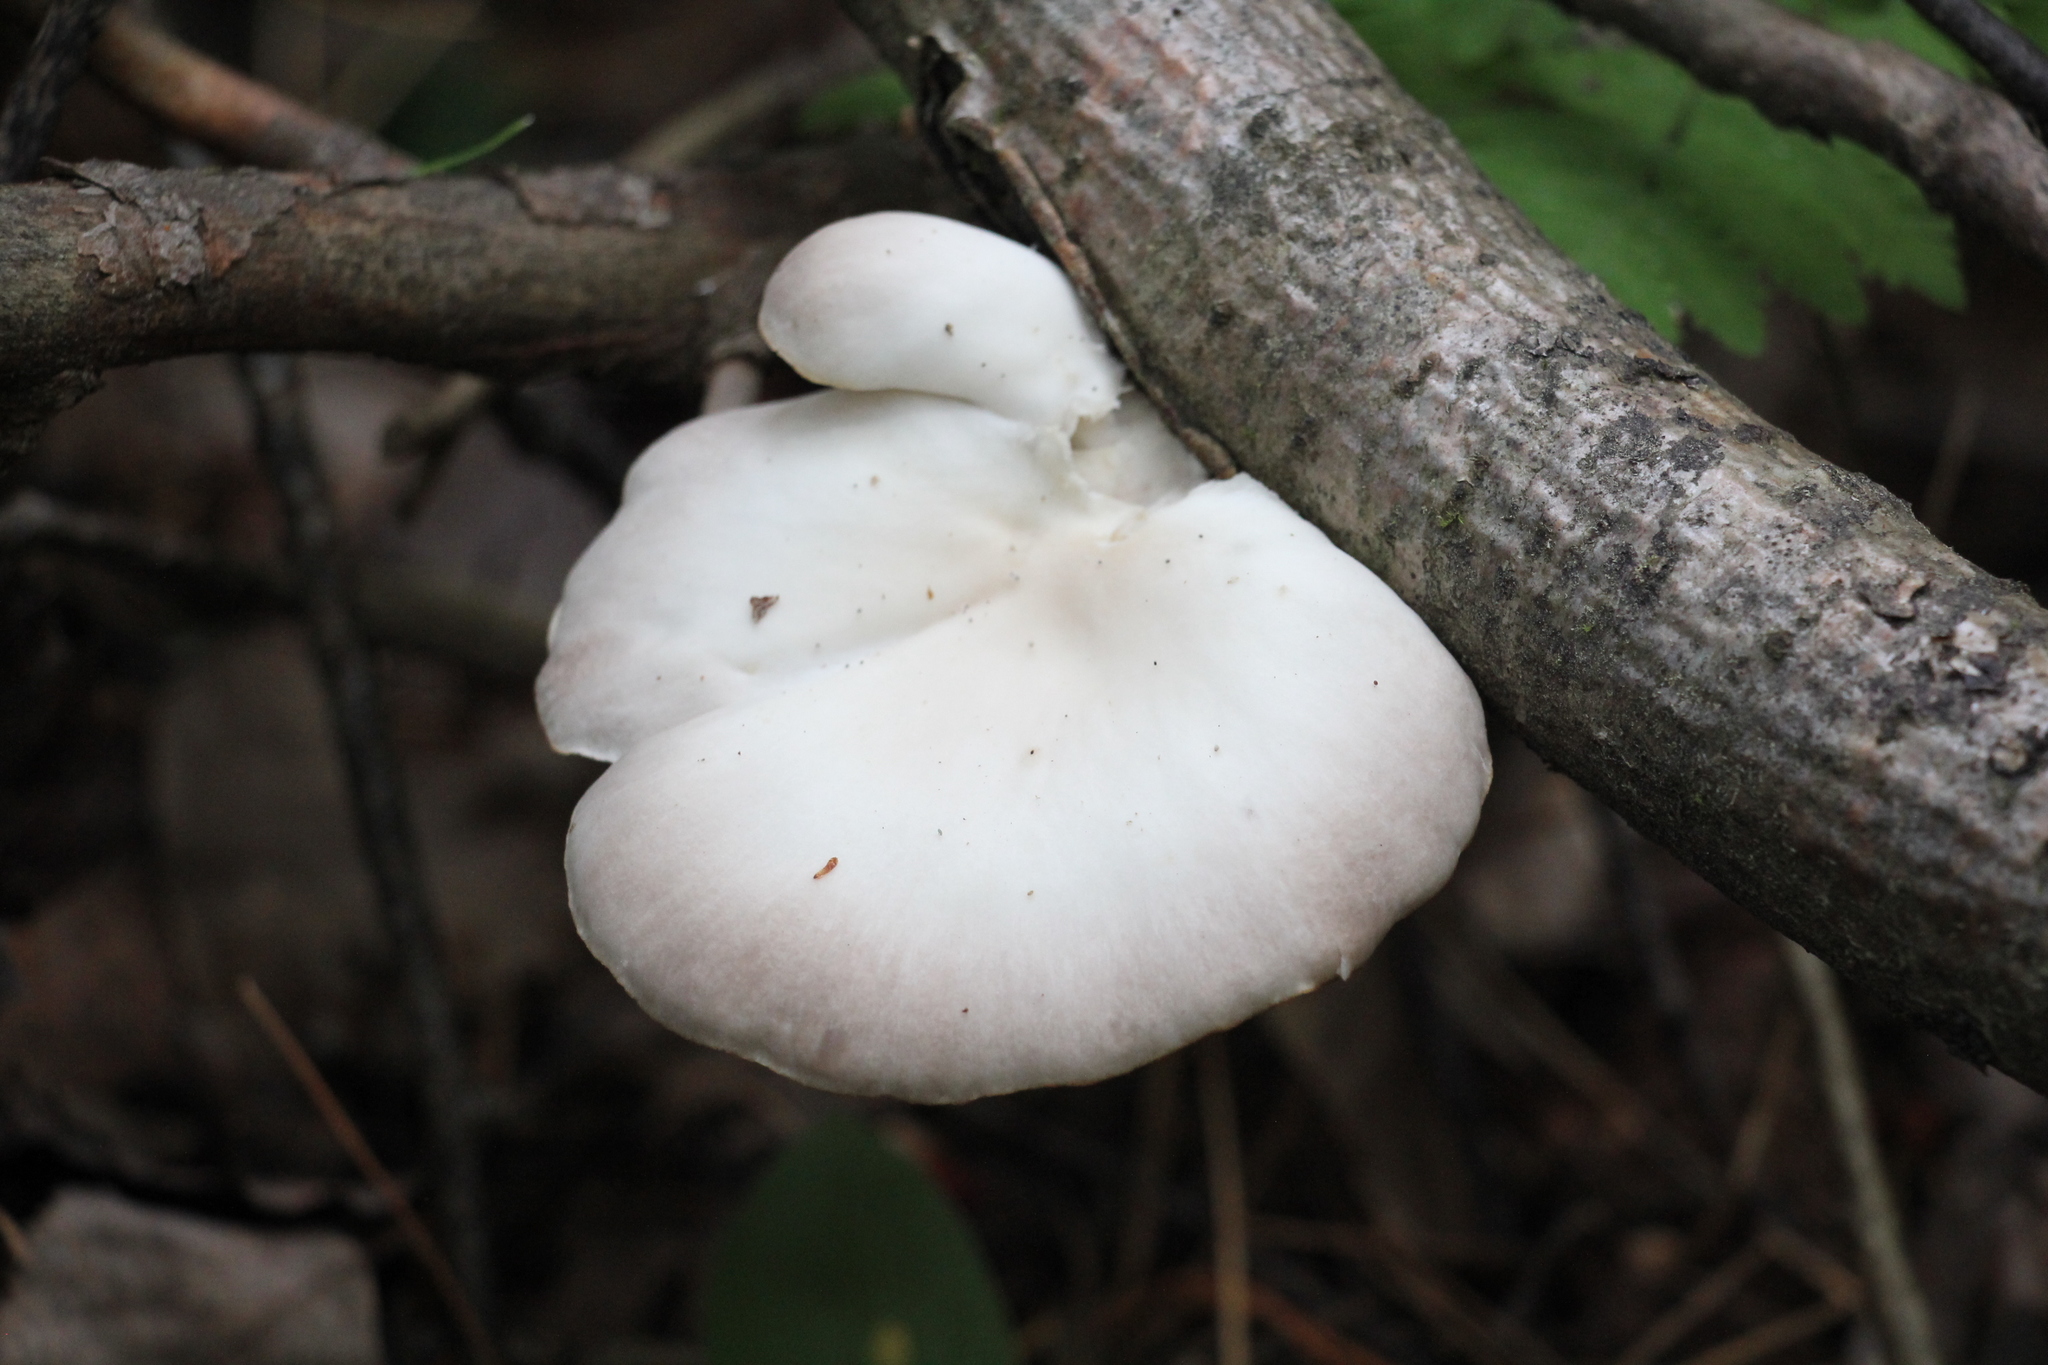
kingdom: Fungi
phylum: Basidiomycota
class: Agaricomycetes
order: Agaricales
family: Pleurotaceae
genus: Pleurotus
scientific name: Pleurotus pulmonarius
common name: Pale oyster
